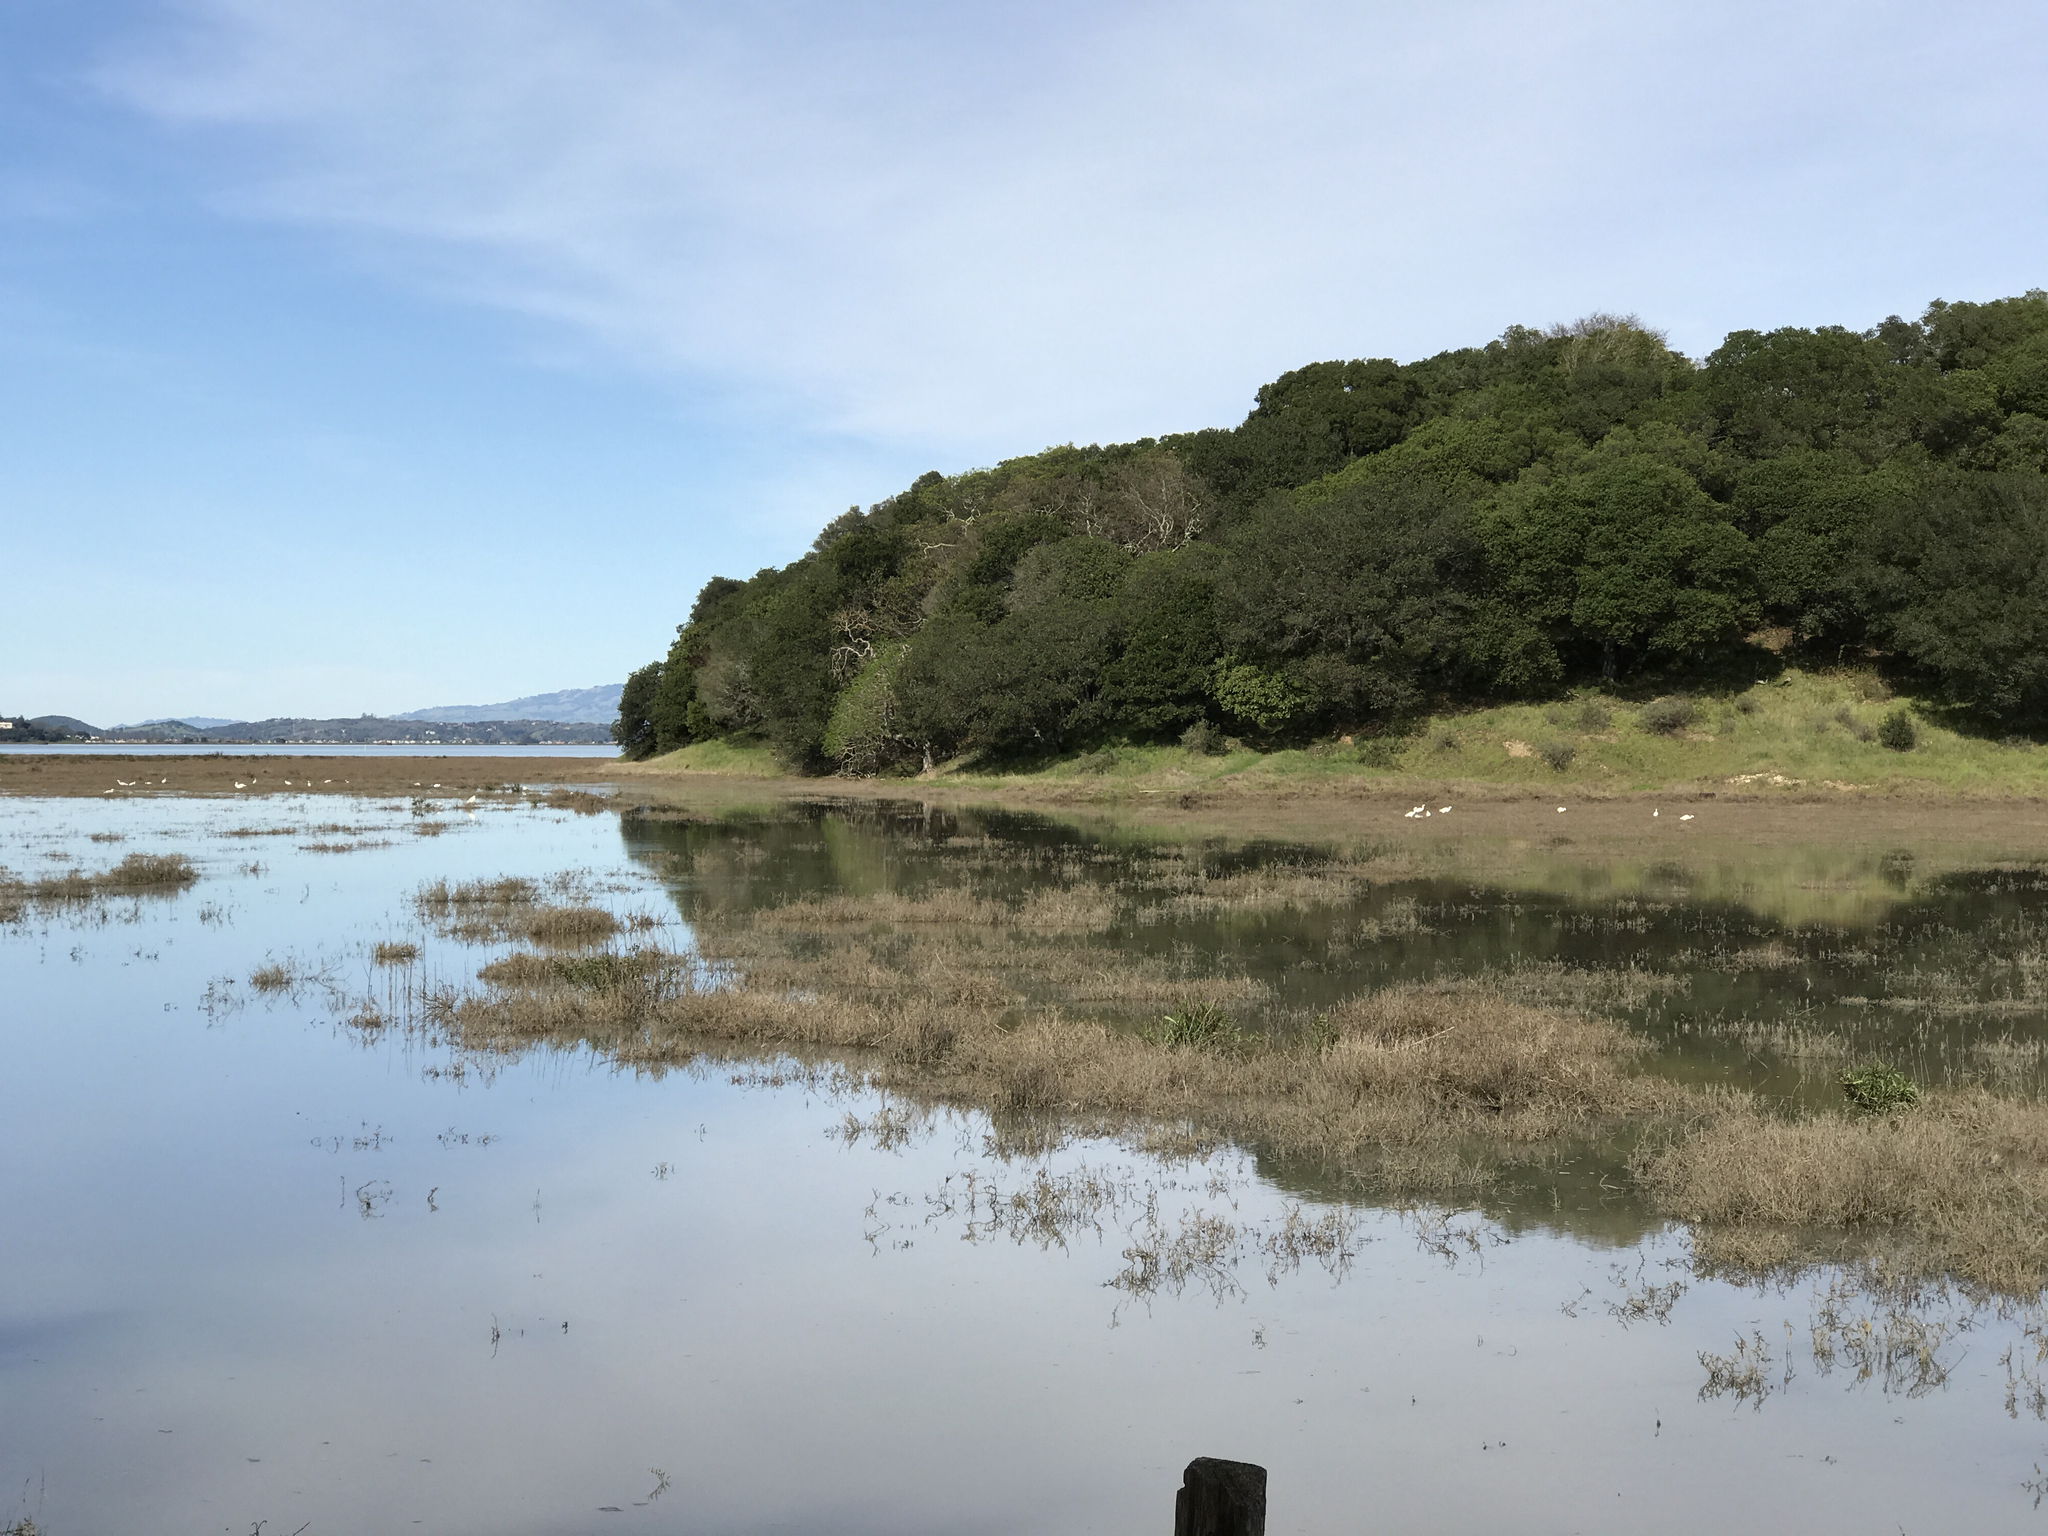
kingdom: Animalia
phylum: Chordata
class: Aves
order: Pelecaniformes
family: Ardeidae
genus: Egretta
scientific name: Egretta thula
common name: Snowy egret
